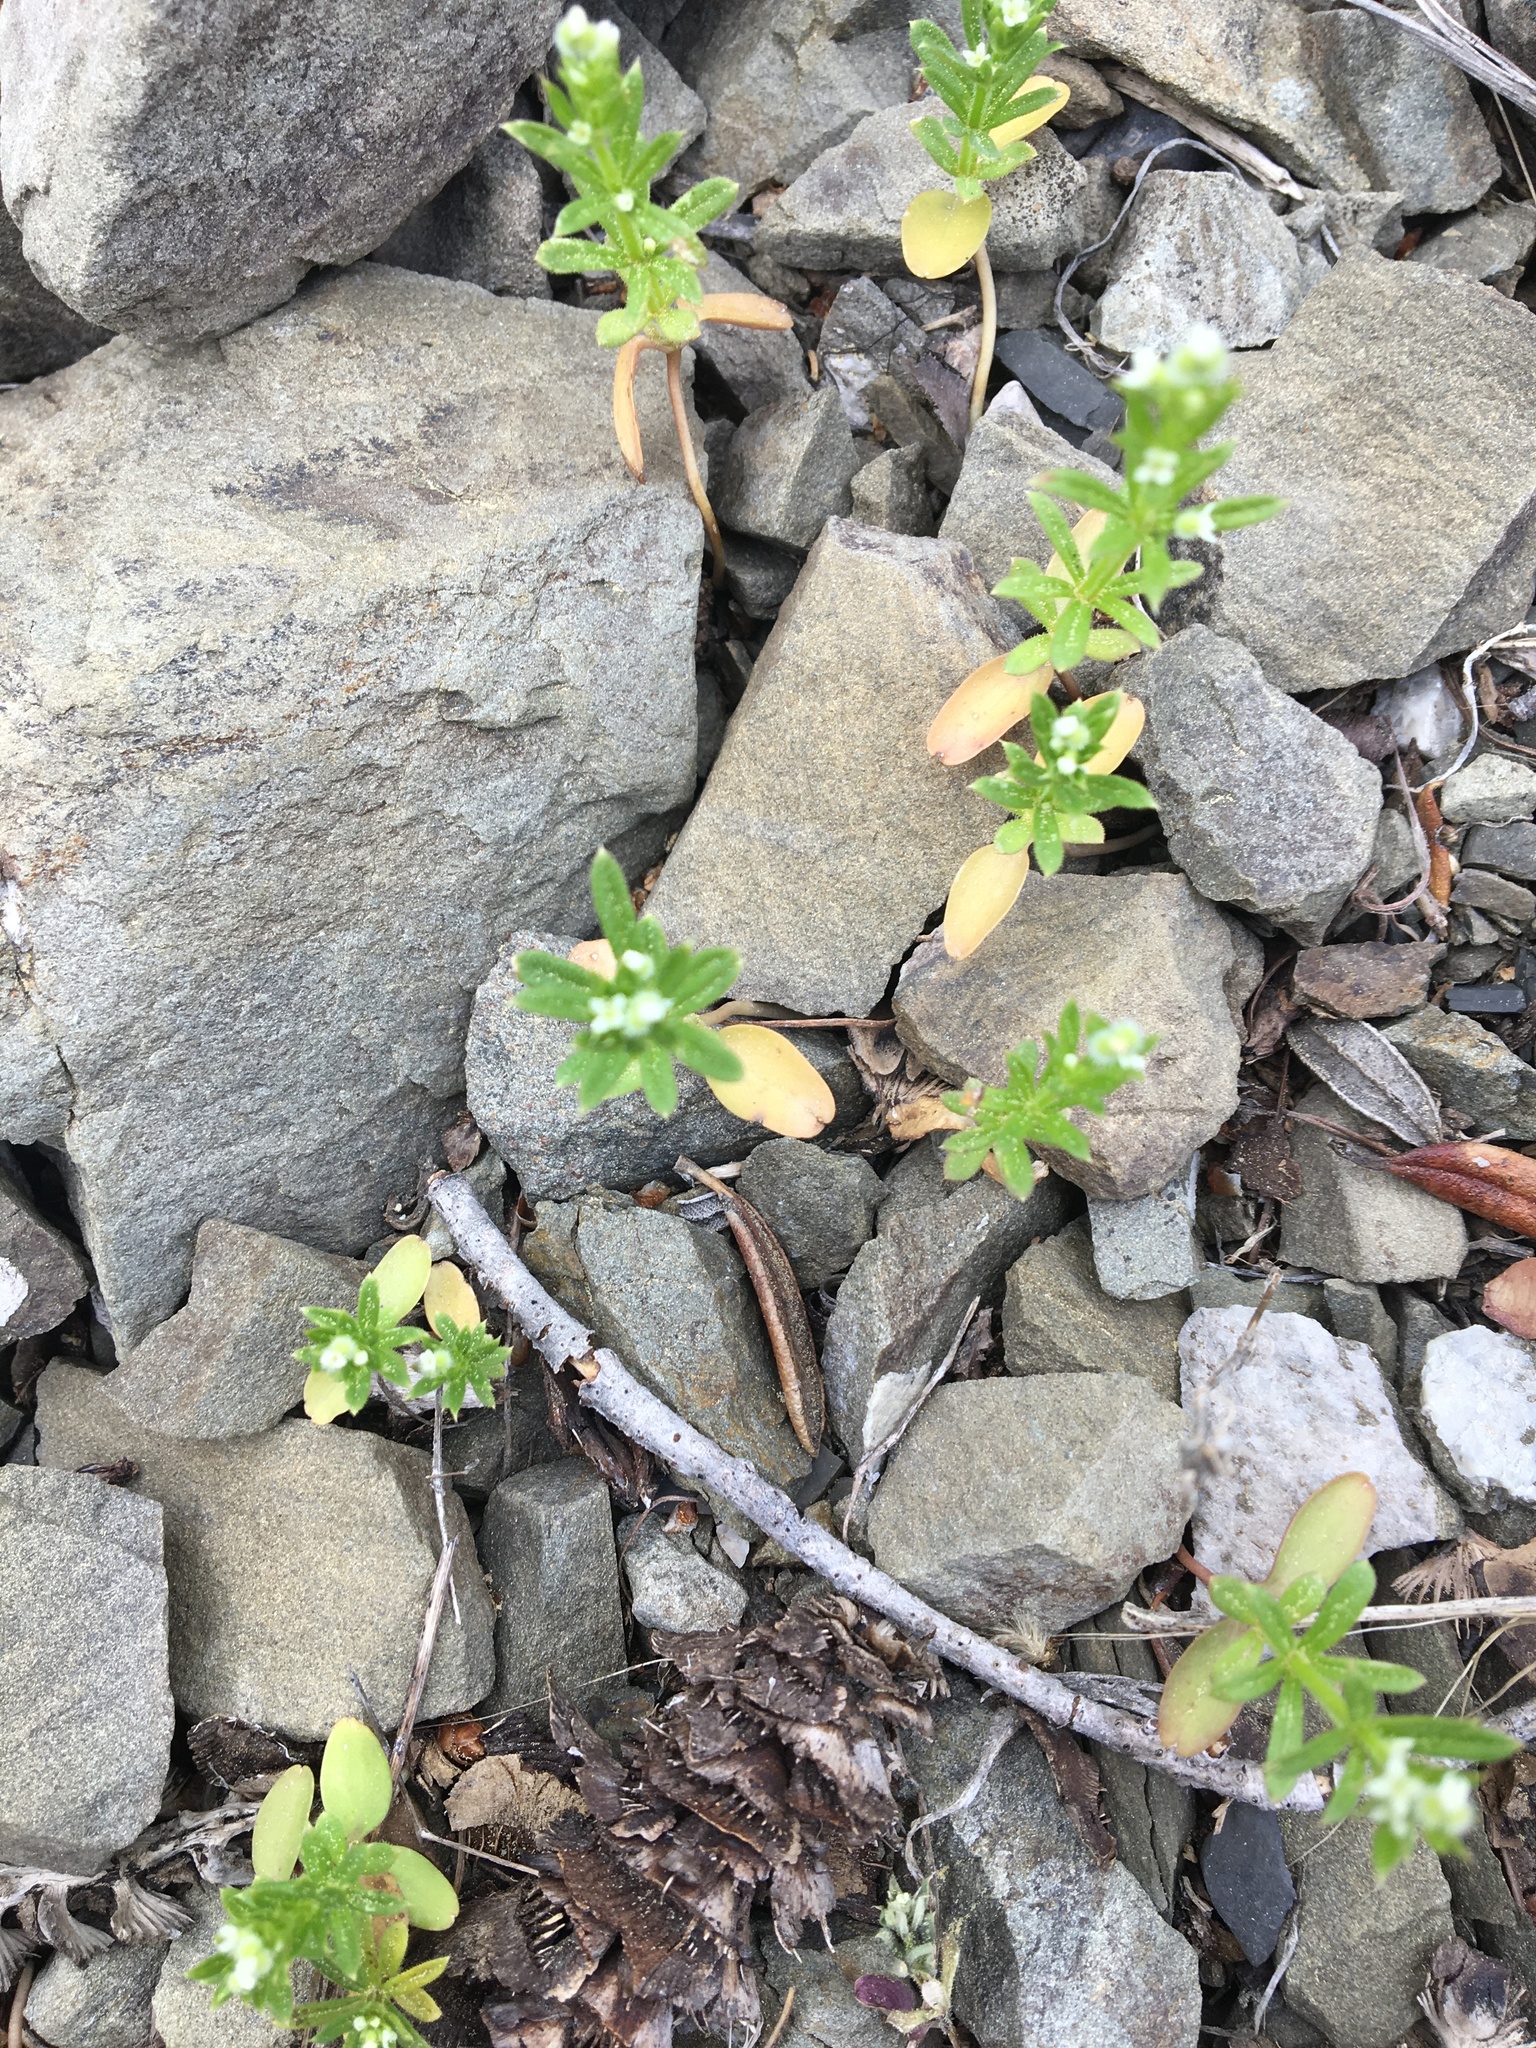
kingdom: Plantae
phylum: Tracheophyta
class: Magnoliopsida
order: Gentianales
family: Rubiaceae
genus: Galium
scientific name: Galium aparine
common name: Cleavers
